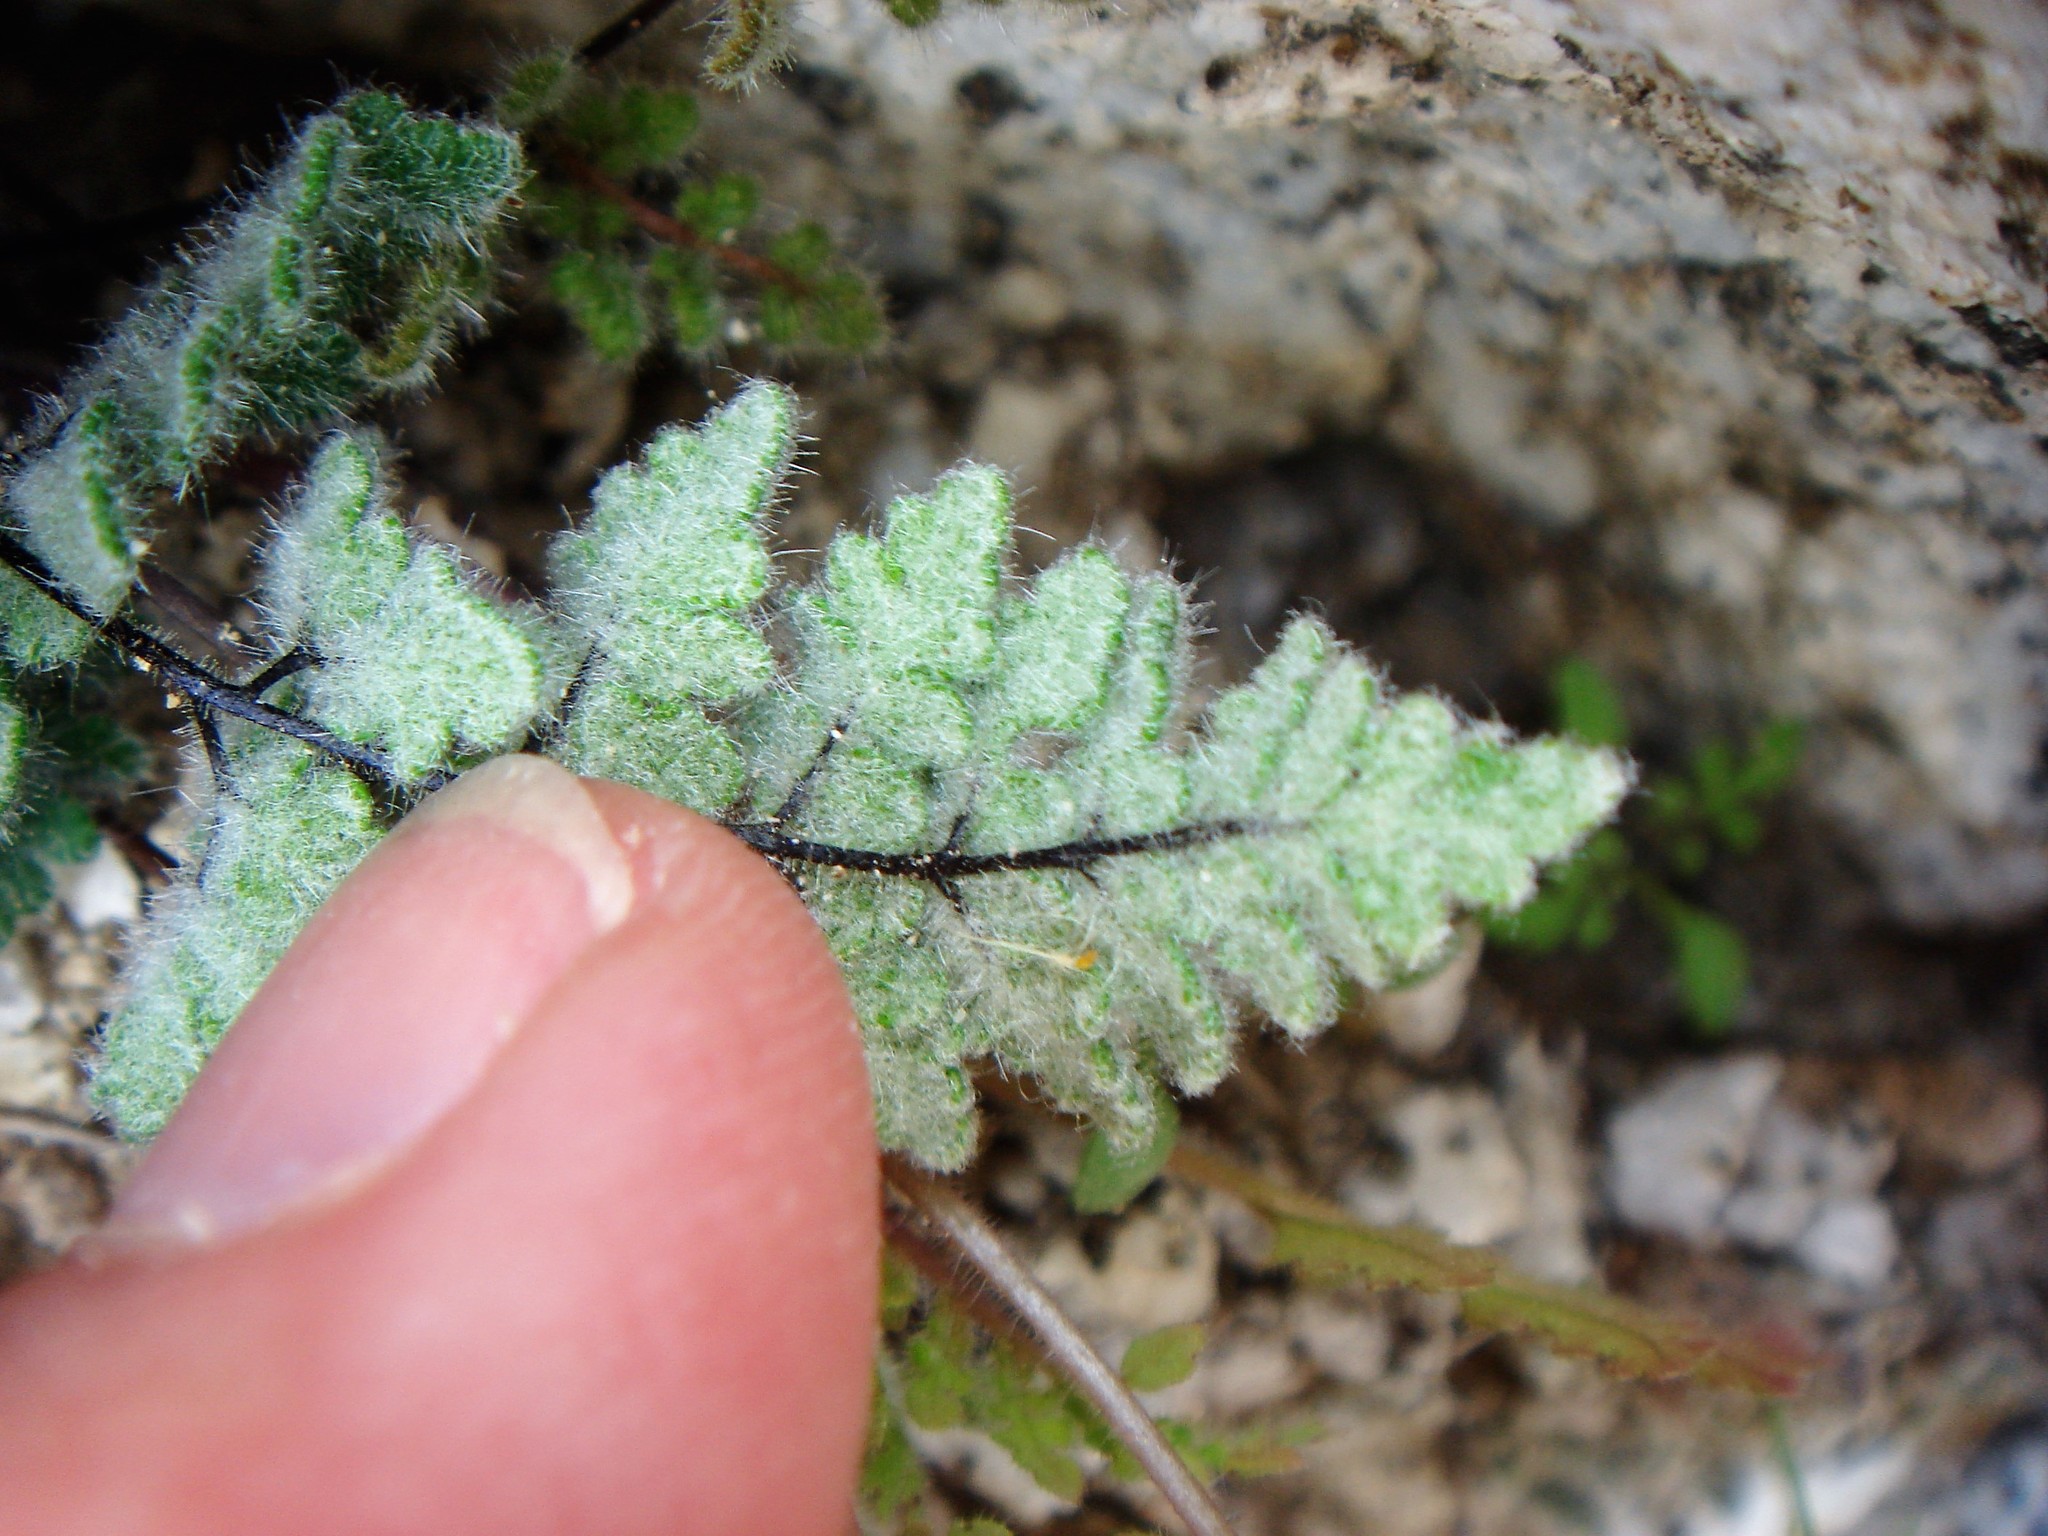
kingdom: Plantae
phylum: Tracheophyta
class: Polypodiopsida
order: Polypodiales
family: Pteridaceae
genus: Myriopteris
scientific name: Myriopteris parryi
